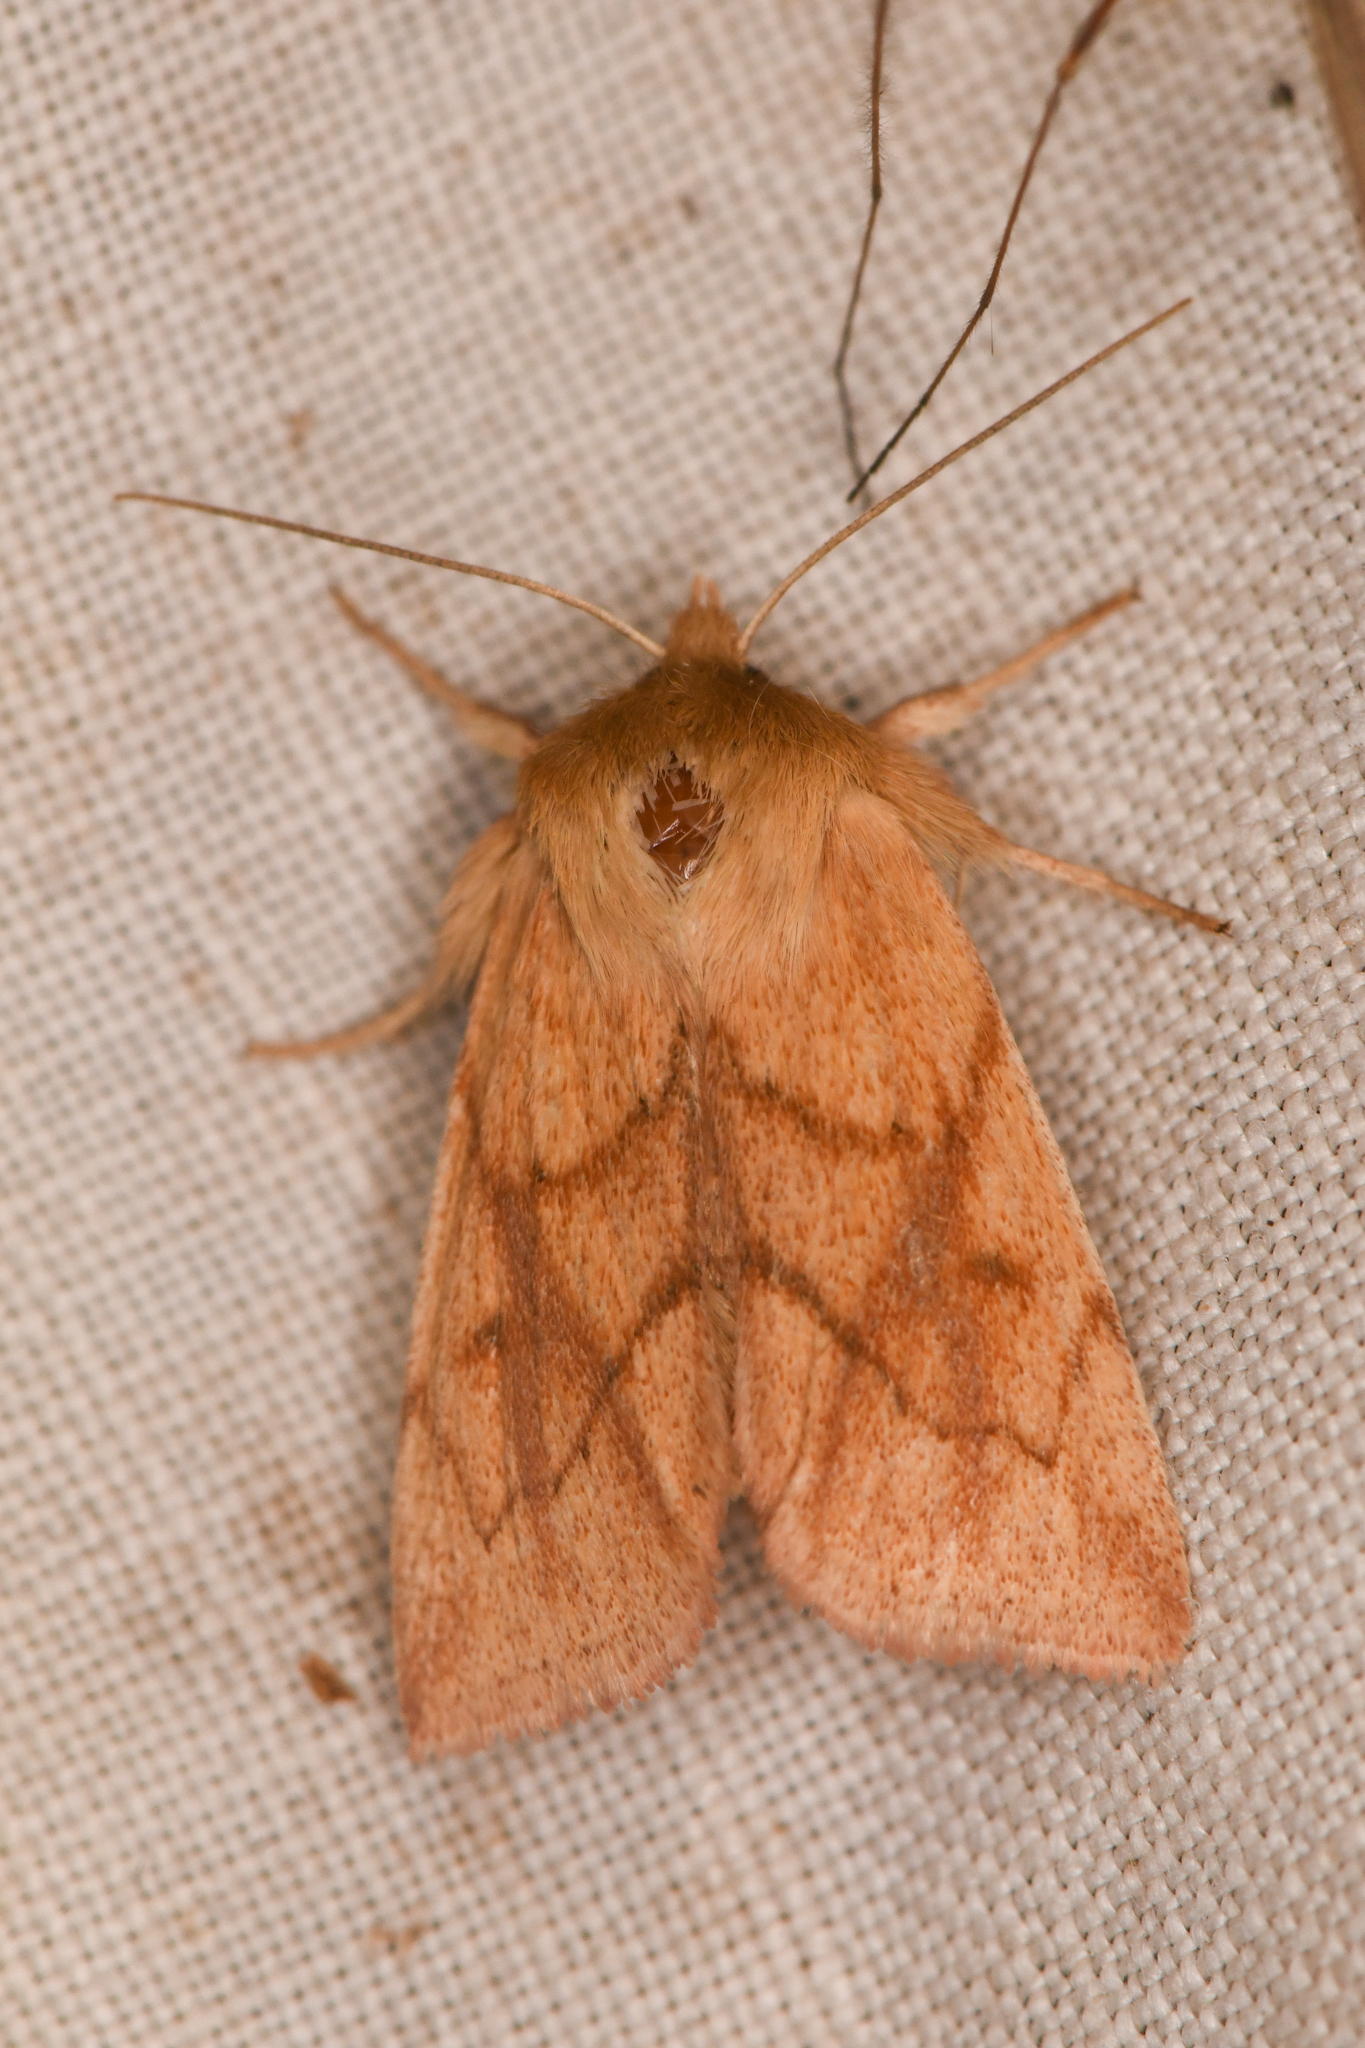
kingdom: Animalia
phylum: Arthropoda
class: Insecta
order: Lepidoptera
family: Noctuidae
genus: Zosteropoda
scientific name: Zosteropoda hirtipes
